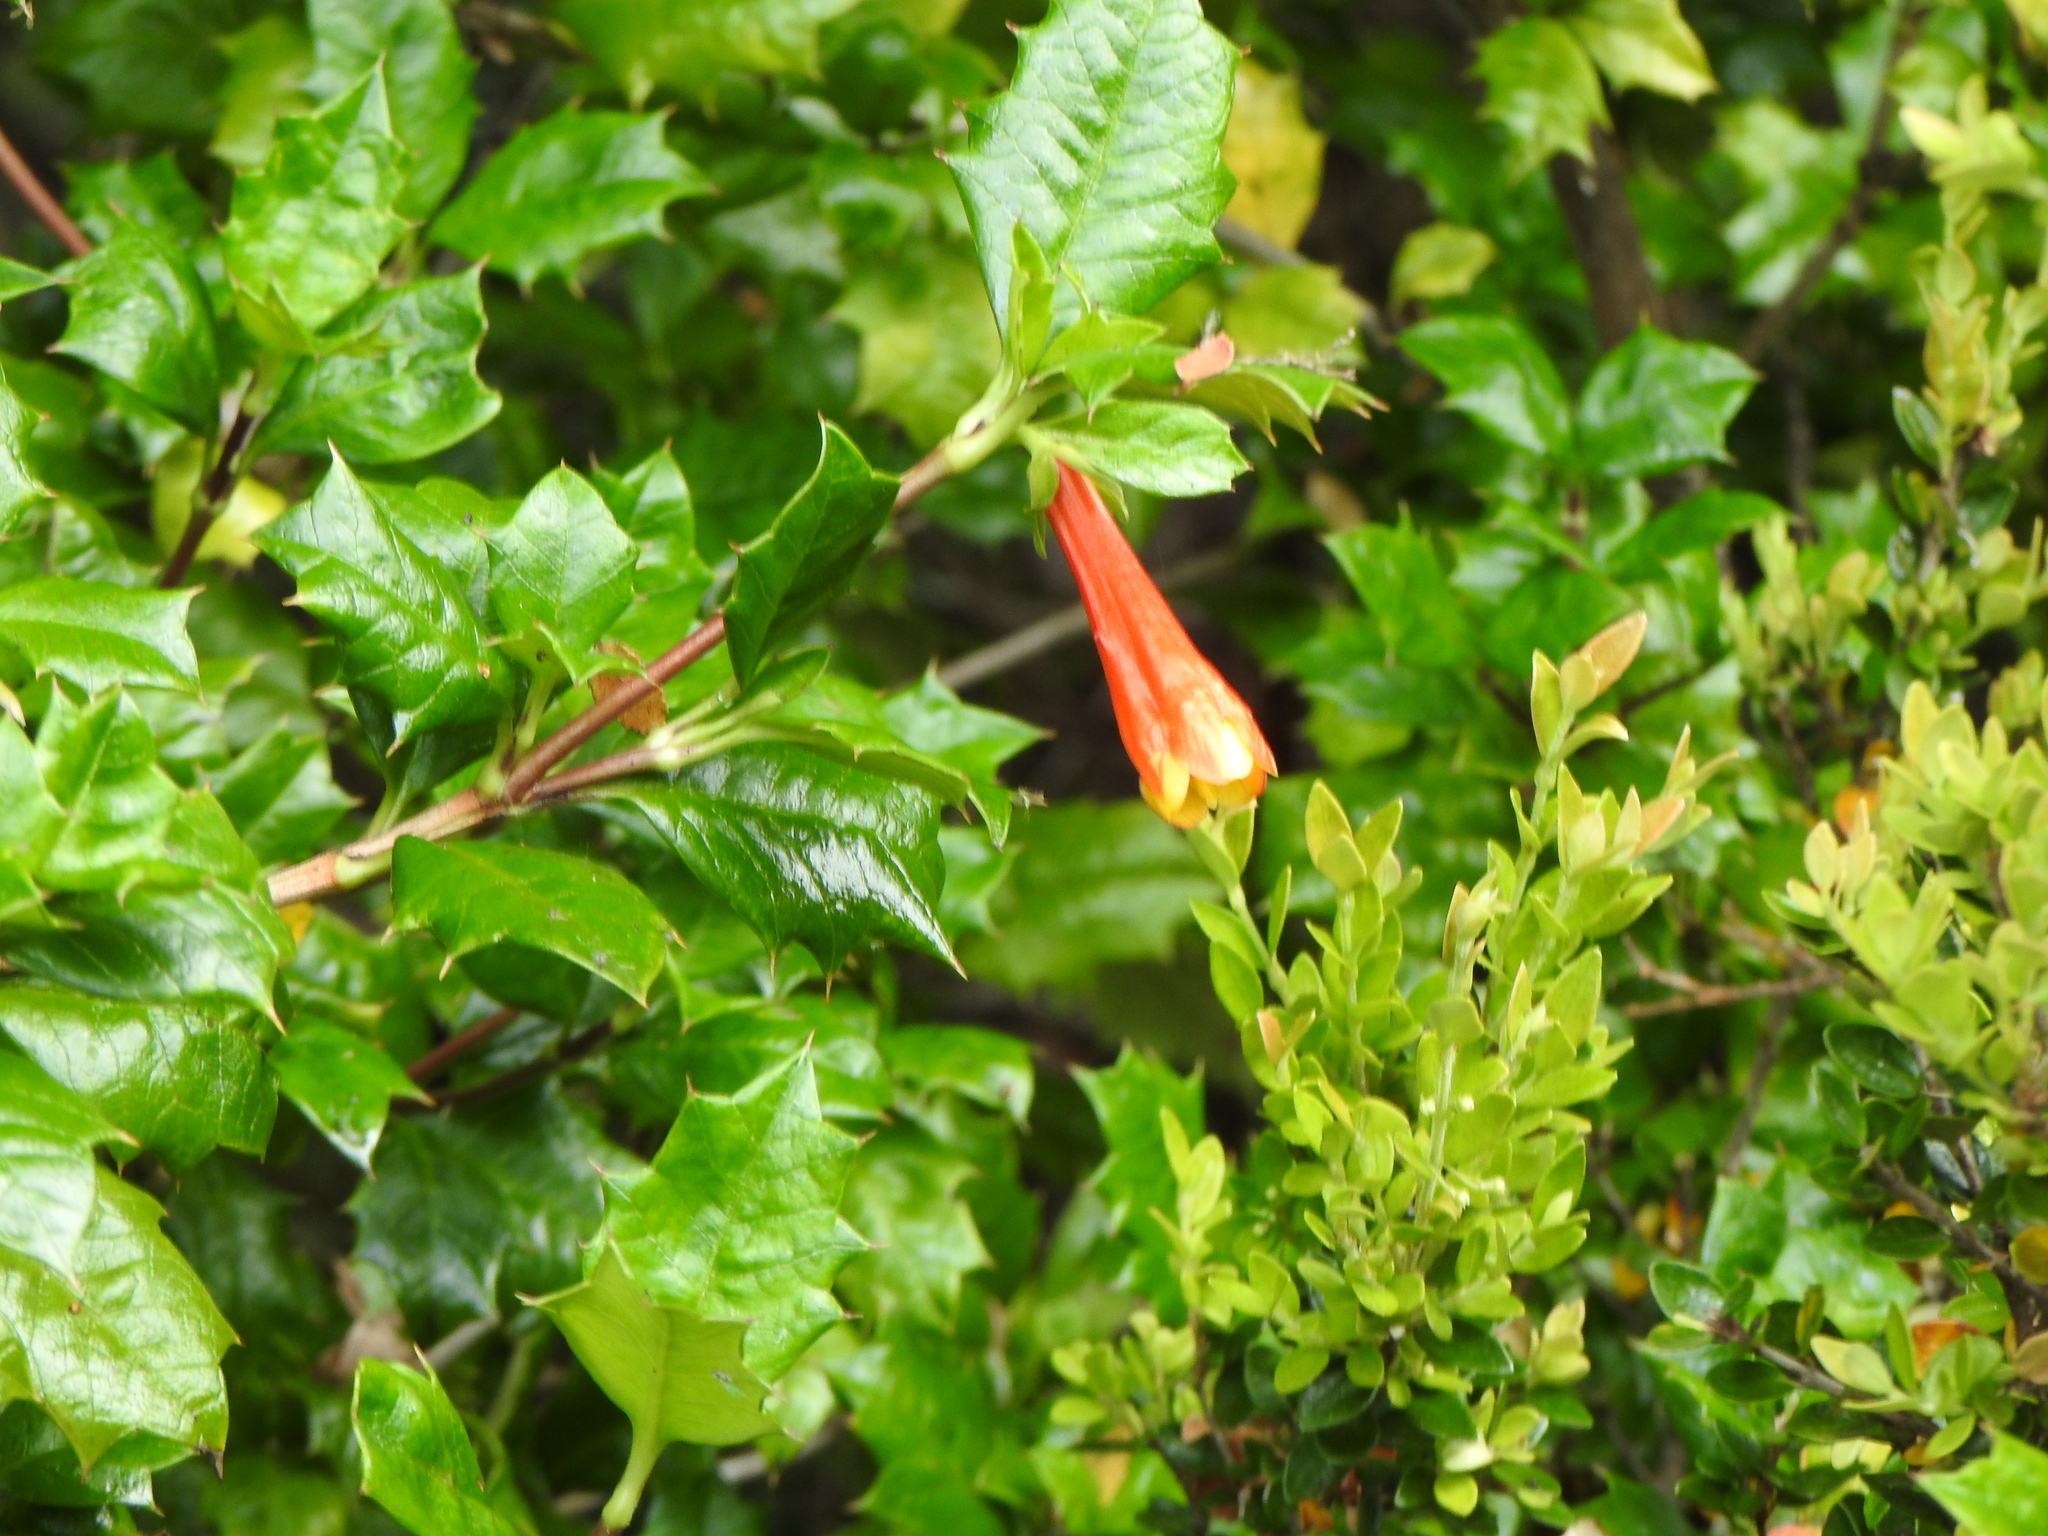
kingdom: Plantae
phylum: Tracheophyta
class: Magnoliopsida
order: Bruniales
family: Columelliaceae
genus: Desfontainia
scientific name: Desfontainia fulgens
